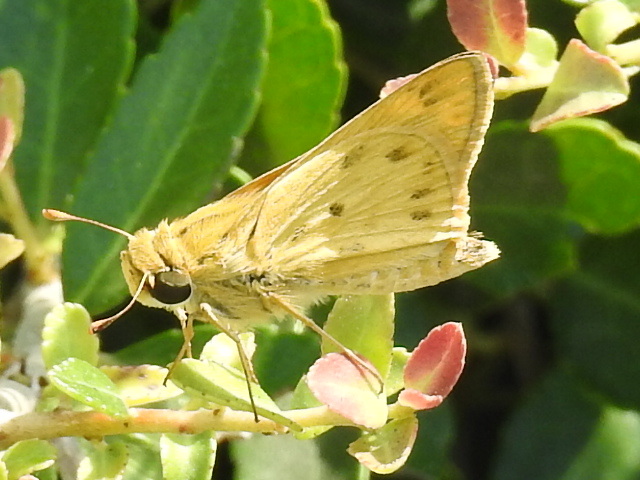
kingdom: Animalia
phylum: Arthropoda
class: Insecta
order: Lepidoptera
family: Hesperiidae
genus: Hylephila
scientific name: Hylephila phyleus
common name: Fiery skipper
